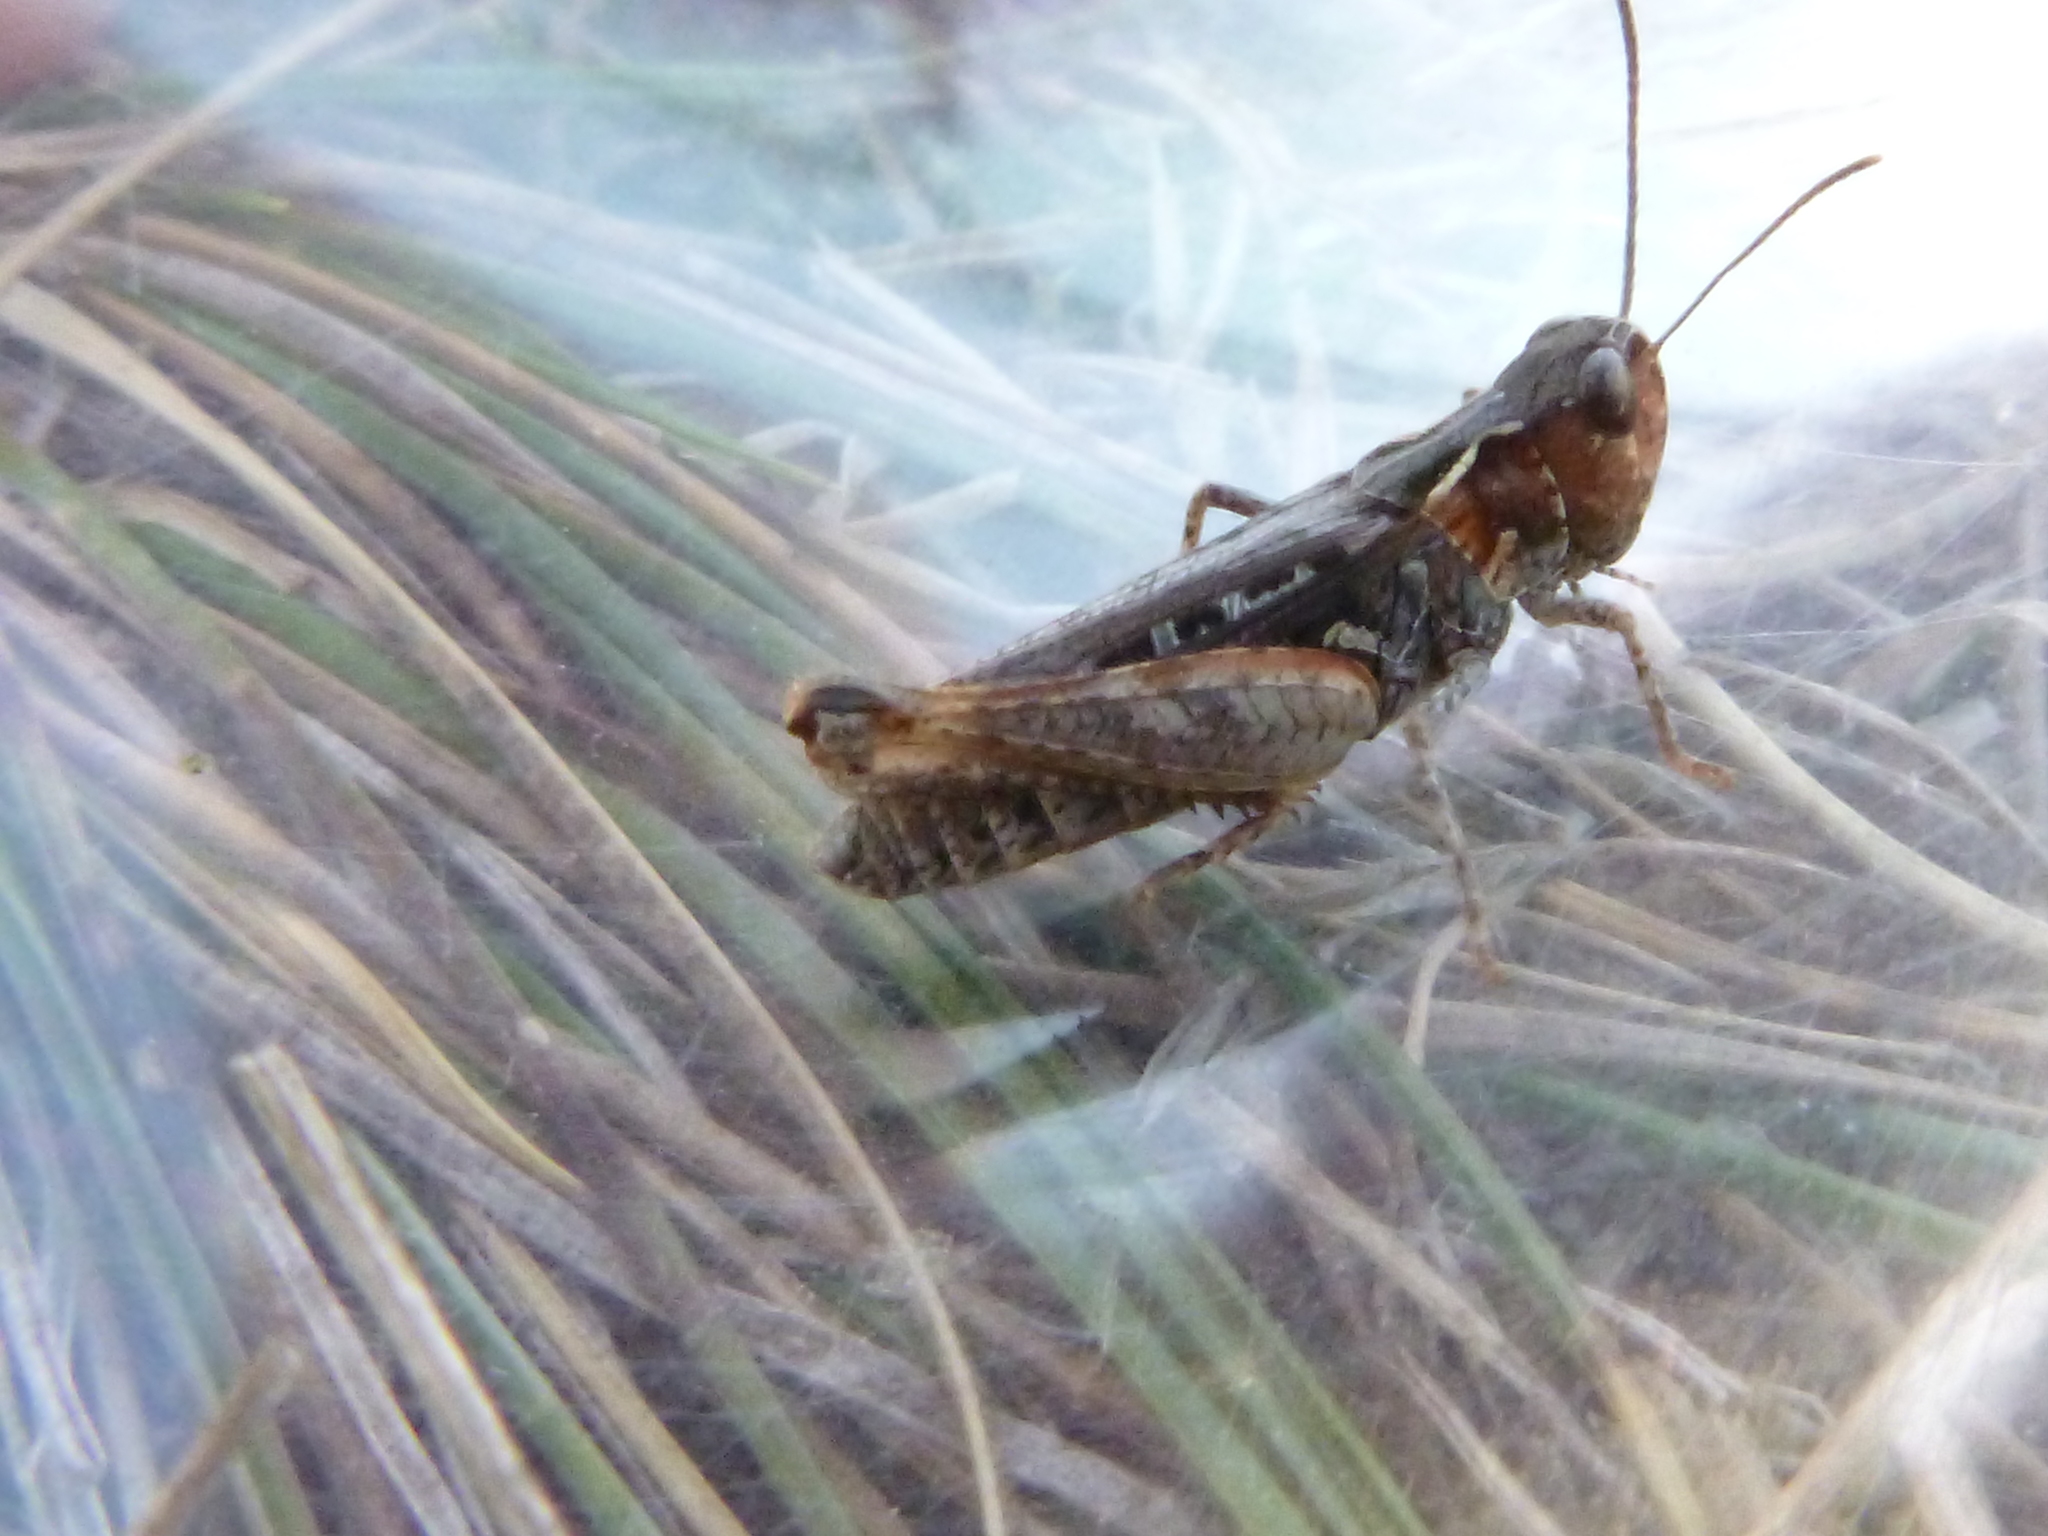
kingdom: Animalia
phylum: Arthropoda
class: Insecta
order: Orthoptera
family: Acrididae
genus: Myrmeleotettix
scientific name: Myrmeleotettix maculatus
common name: Mottled grasshopper
